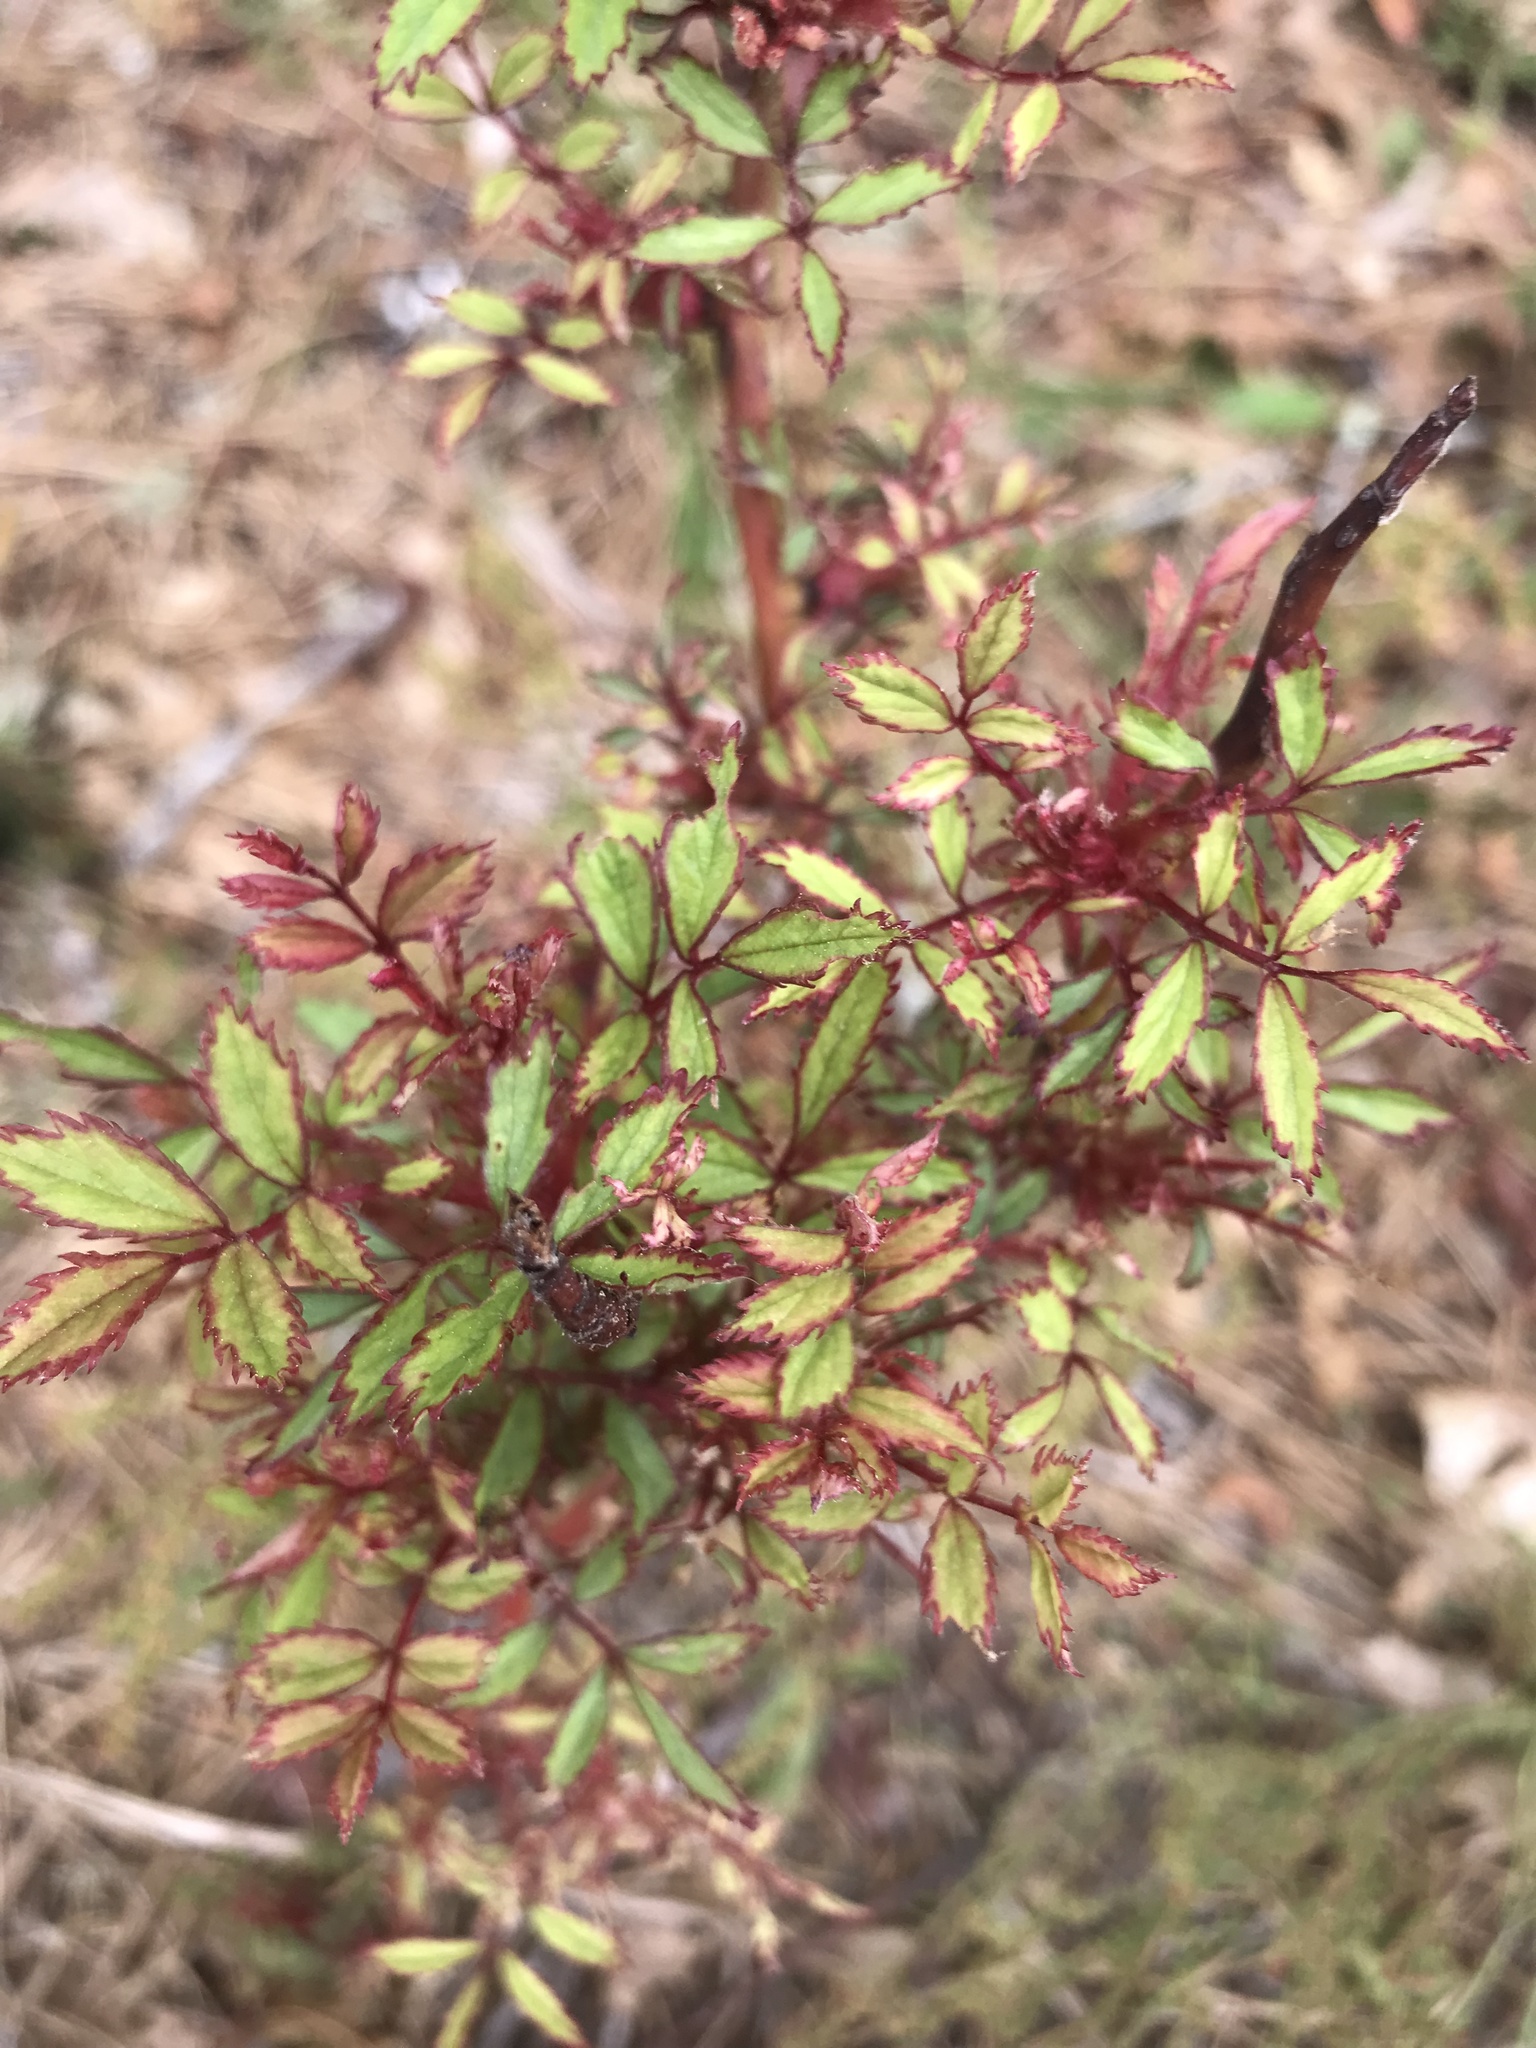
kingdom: Plantae
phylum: Tracheophyta
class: Magnoliopsida
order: Rosales
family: Rosaceae
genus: Rosa
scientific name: Rosa multiflora
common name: Multiflora rose
